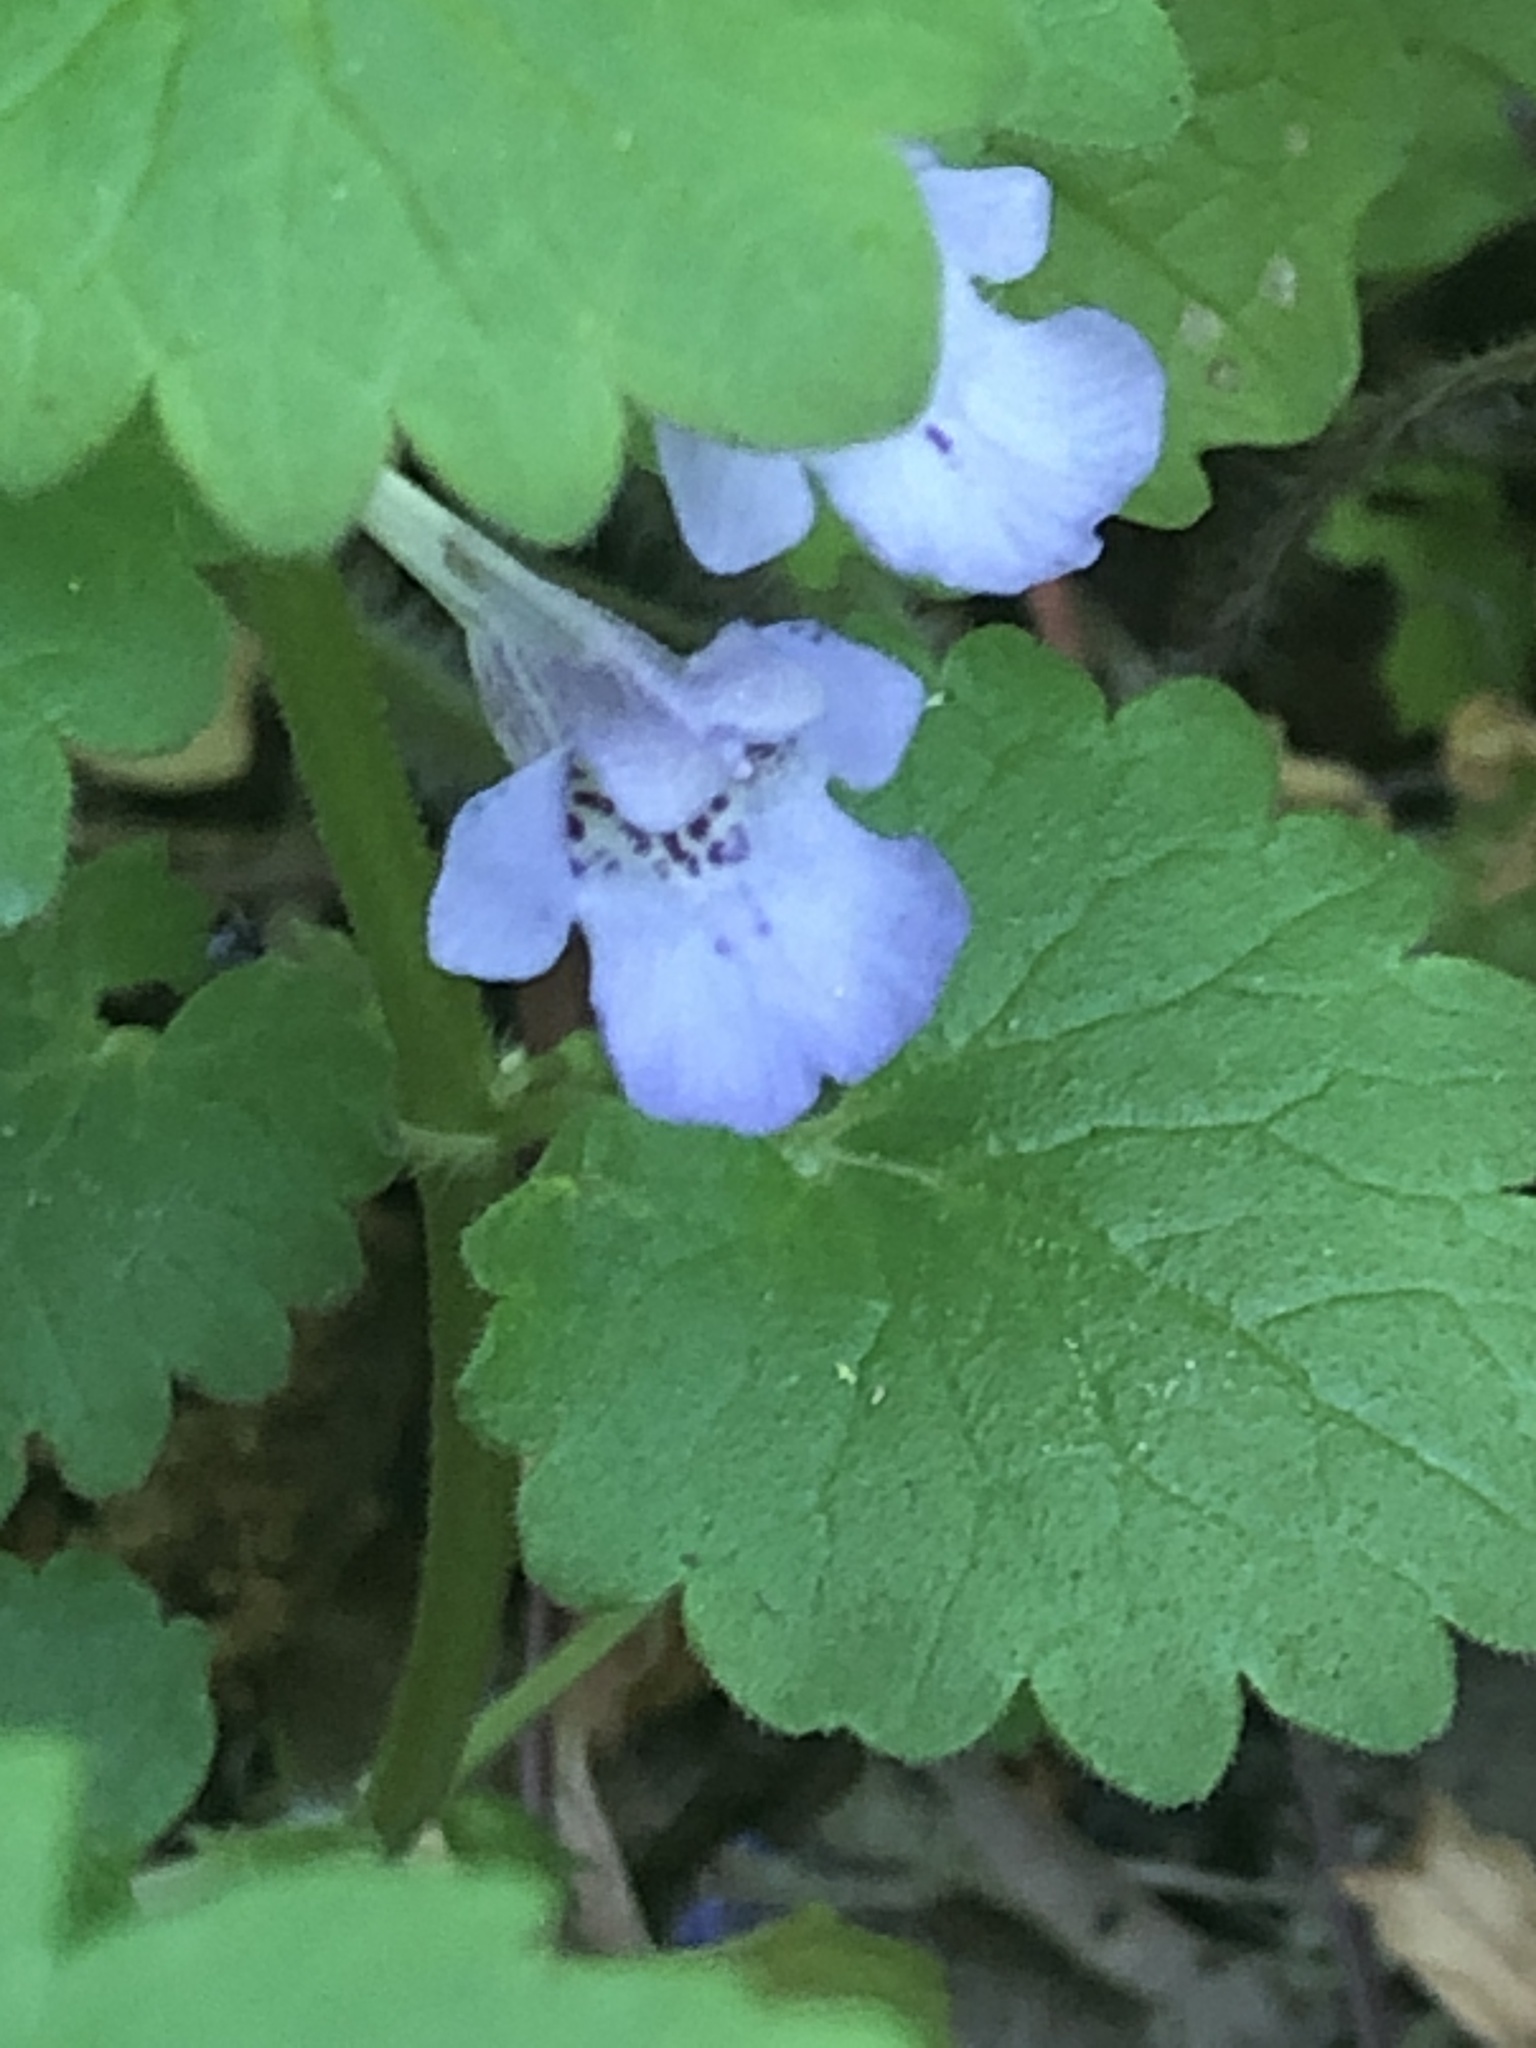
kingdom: Plantae
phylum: Tracheophyta
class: Magnoliopsida
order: Lamiales
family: Lamiaceae
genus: Glechoma
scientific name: Glechoma hederacea
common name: Ground ivy
